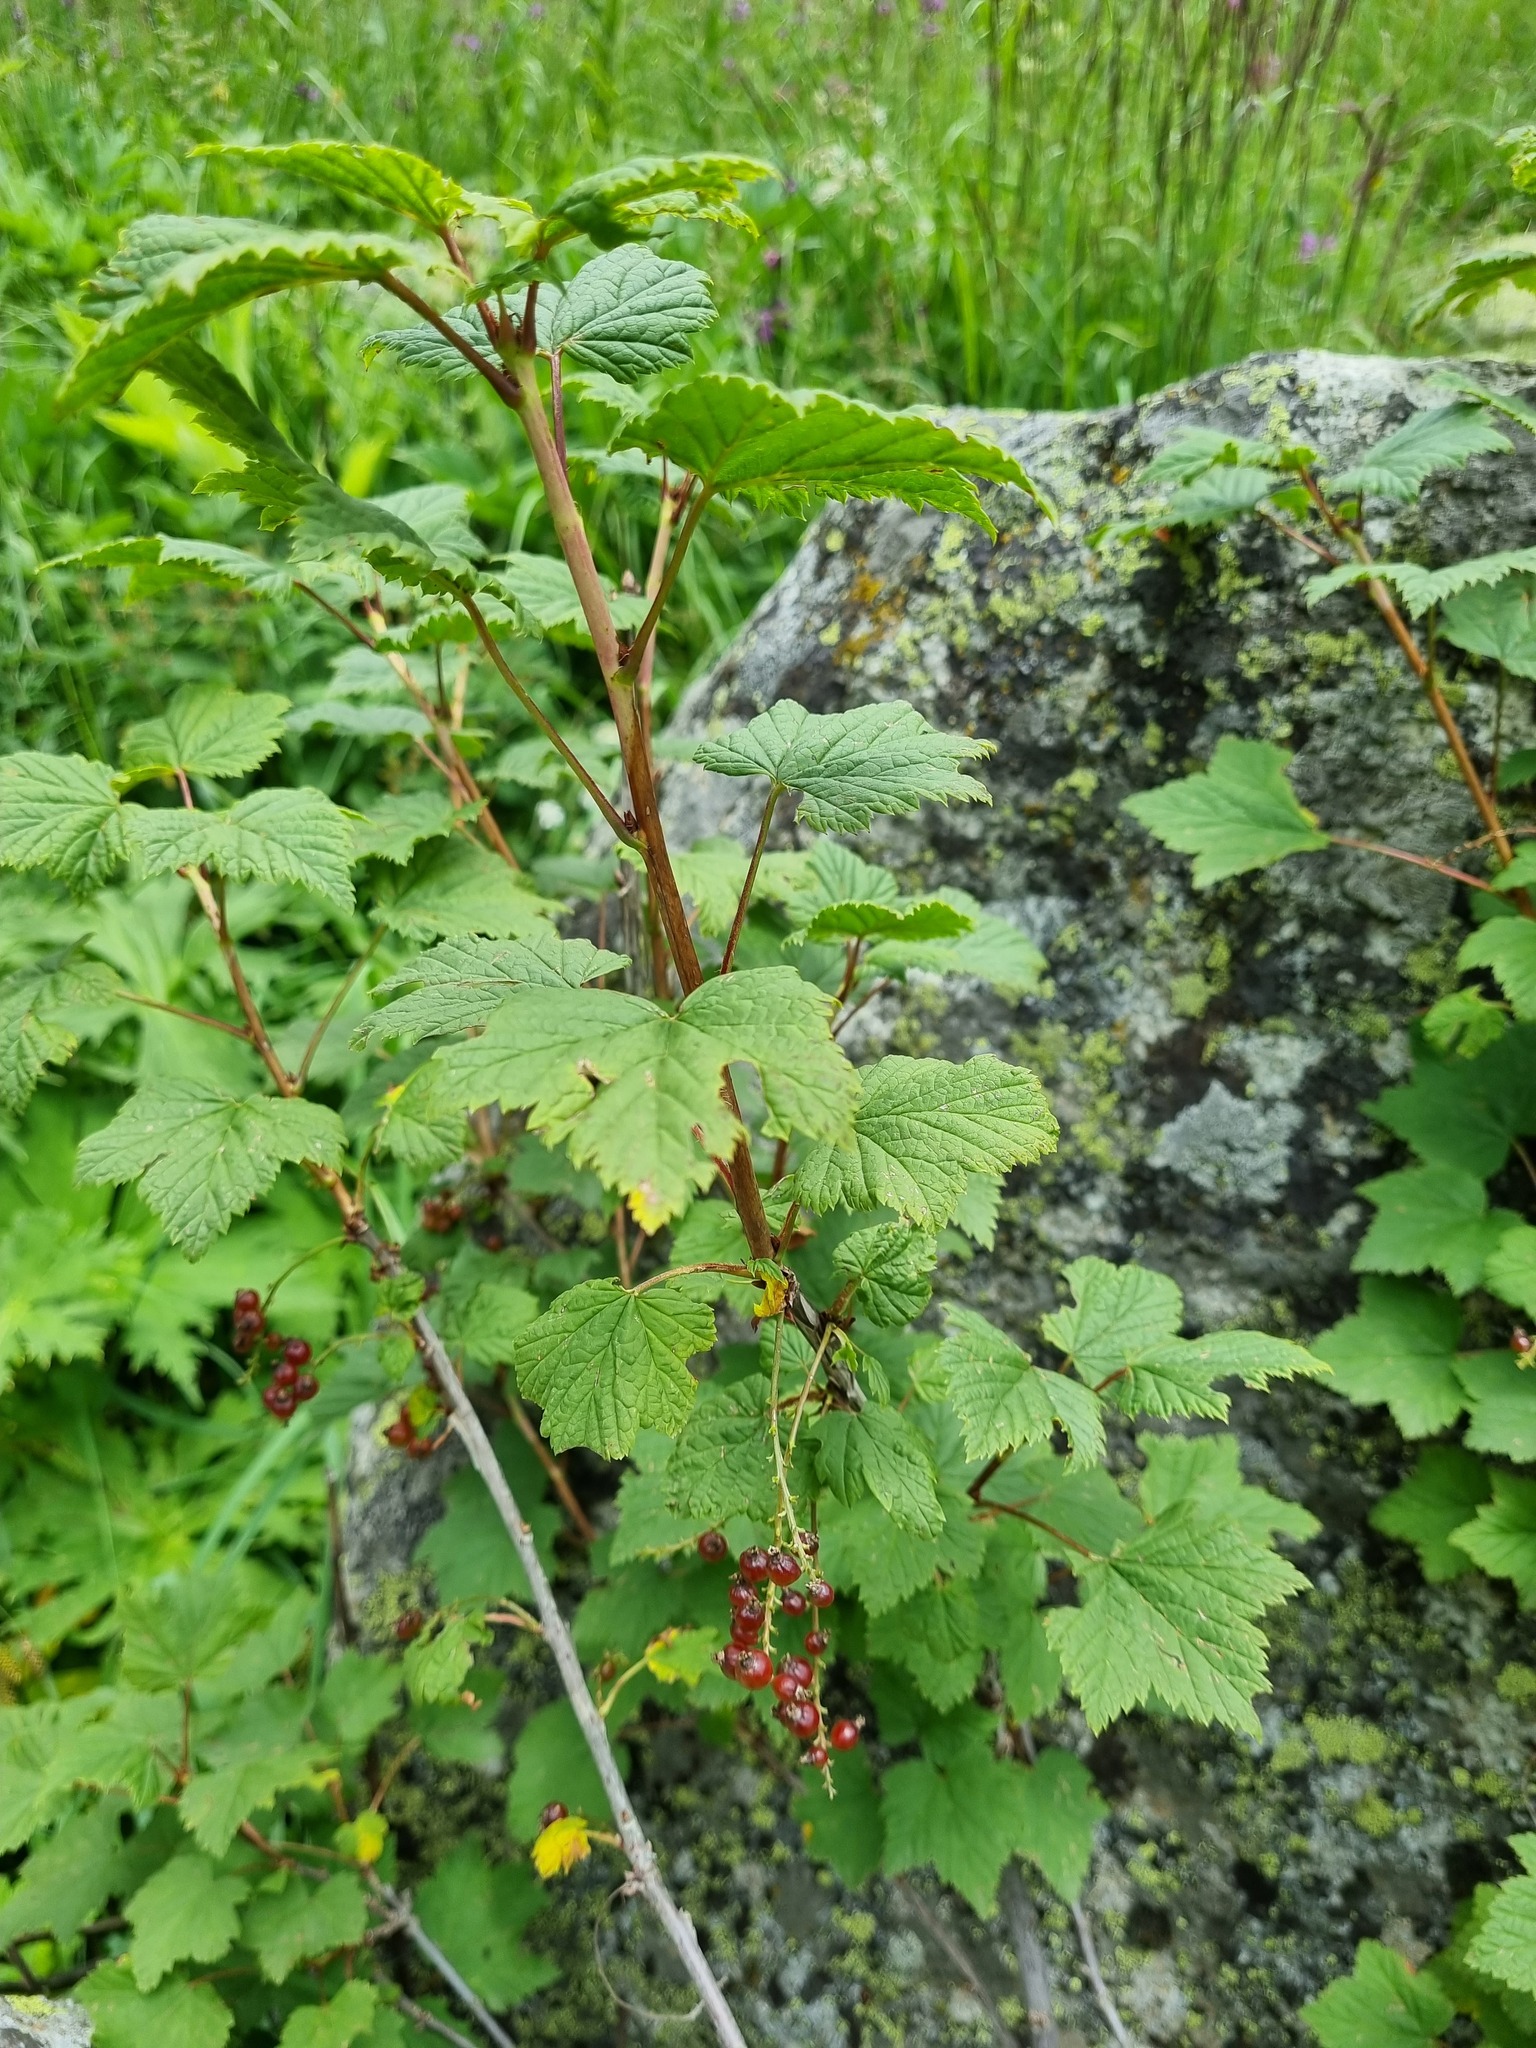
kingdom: Plantae
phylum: Tracheophyta
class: Magnoliopsida
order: Saxifragales
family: Grossulariaceae
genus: Ribes
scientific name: Ribes biebersteinii
